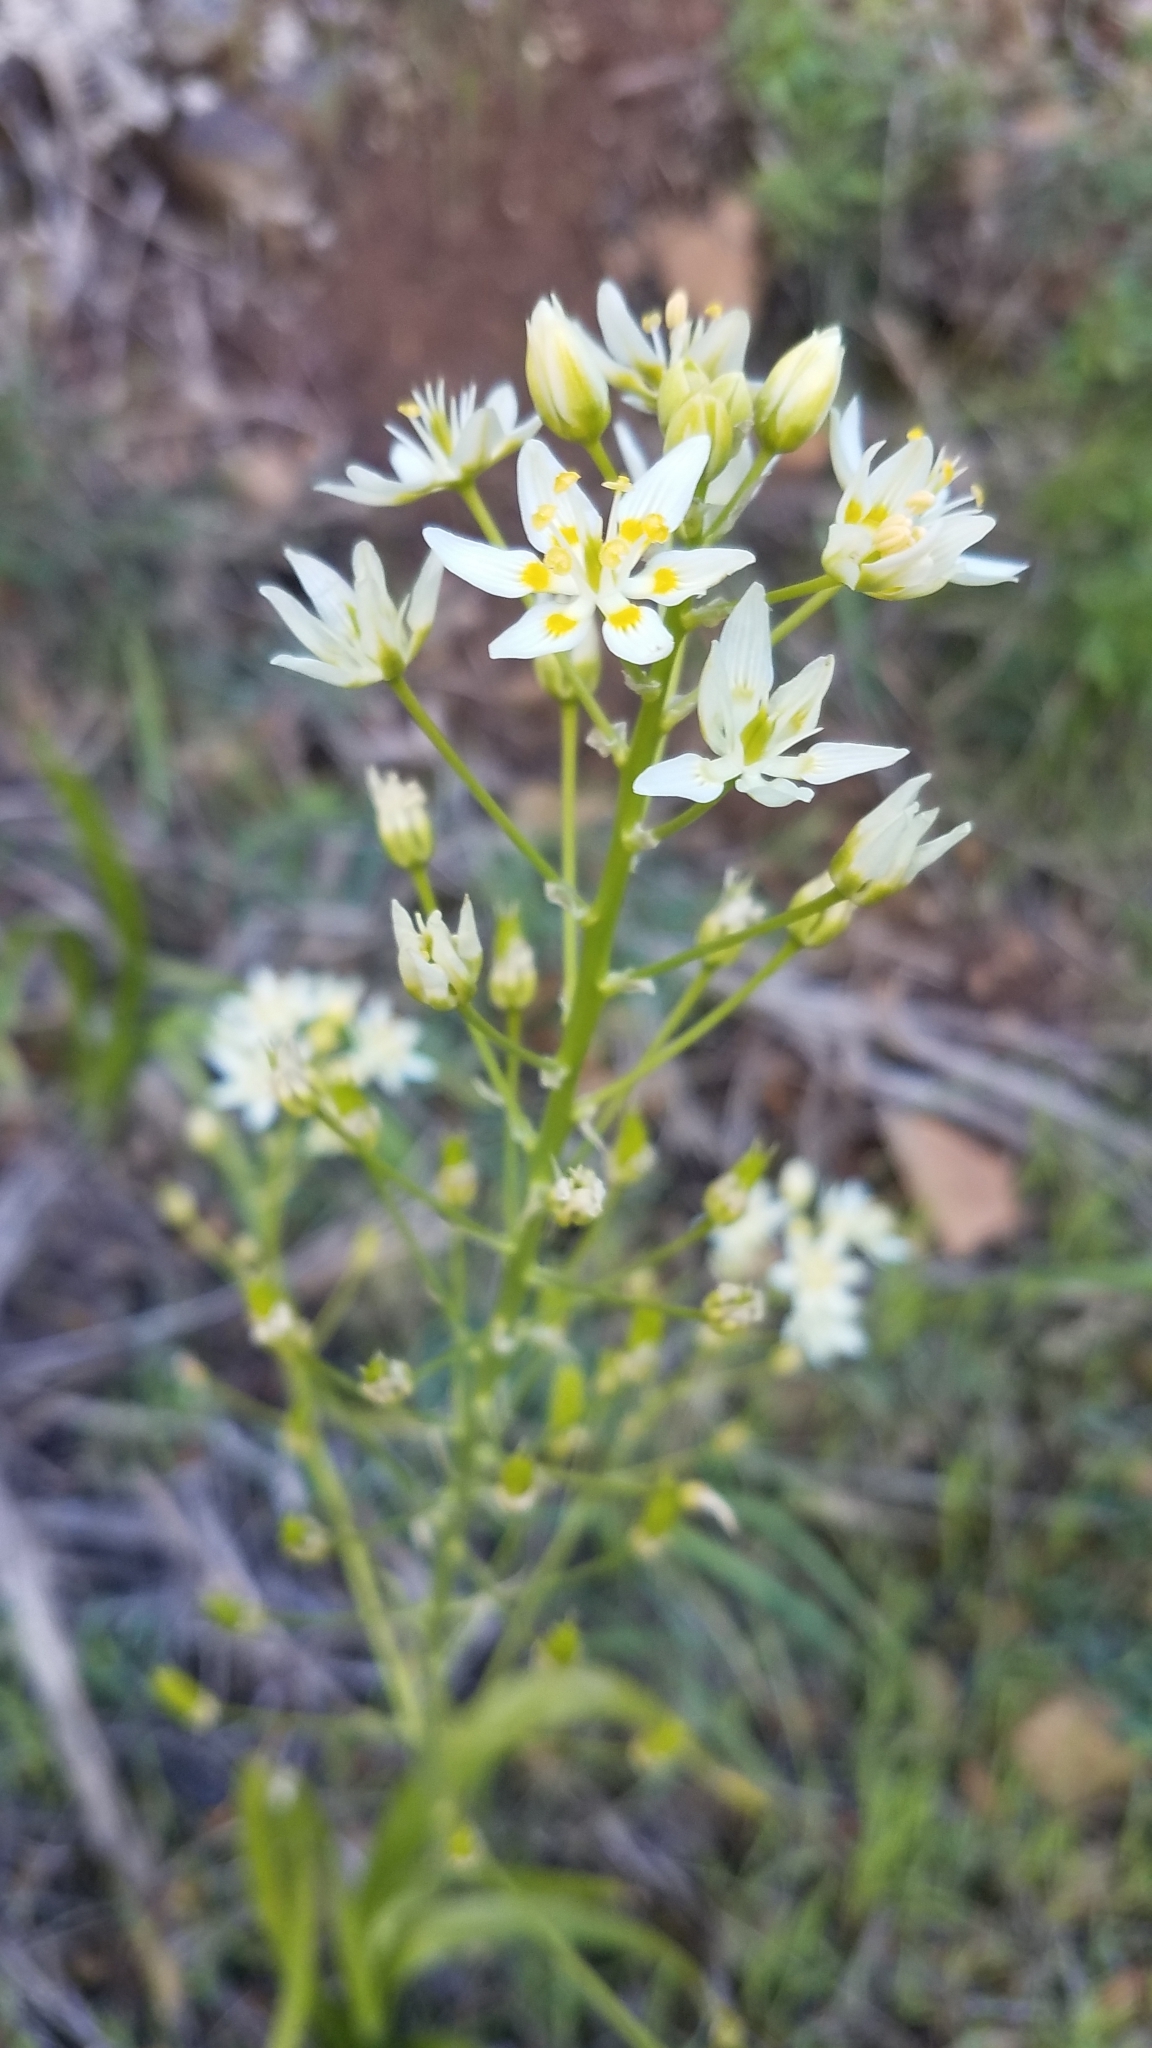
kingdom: Plantae
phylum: Tracheophyta
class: Liliopsida
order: Liliales
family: Melanthiaceae
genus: Toxicoscordion
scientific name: Toxicoscordion fremontii
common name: Fremont's death camas
